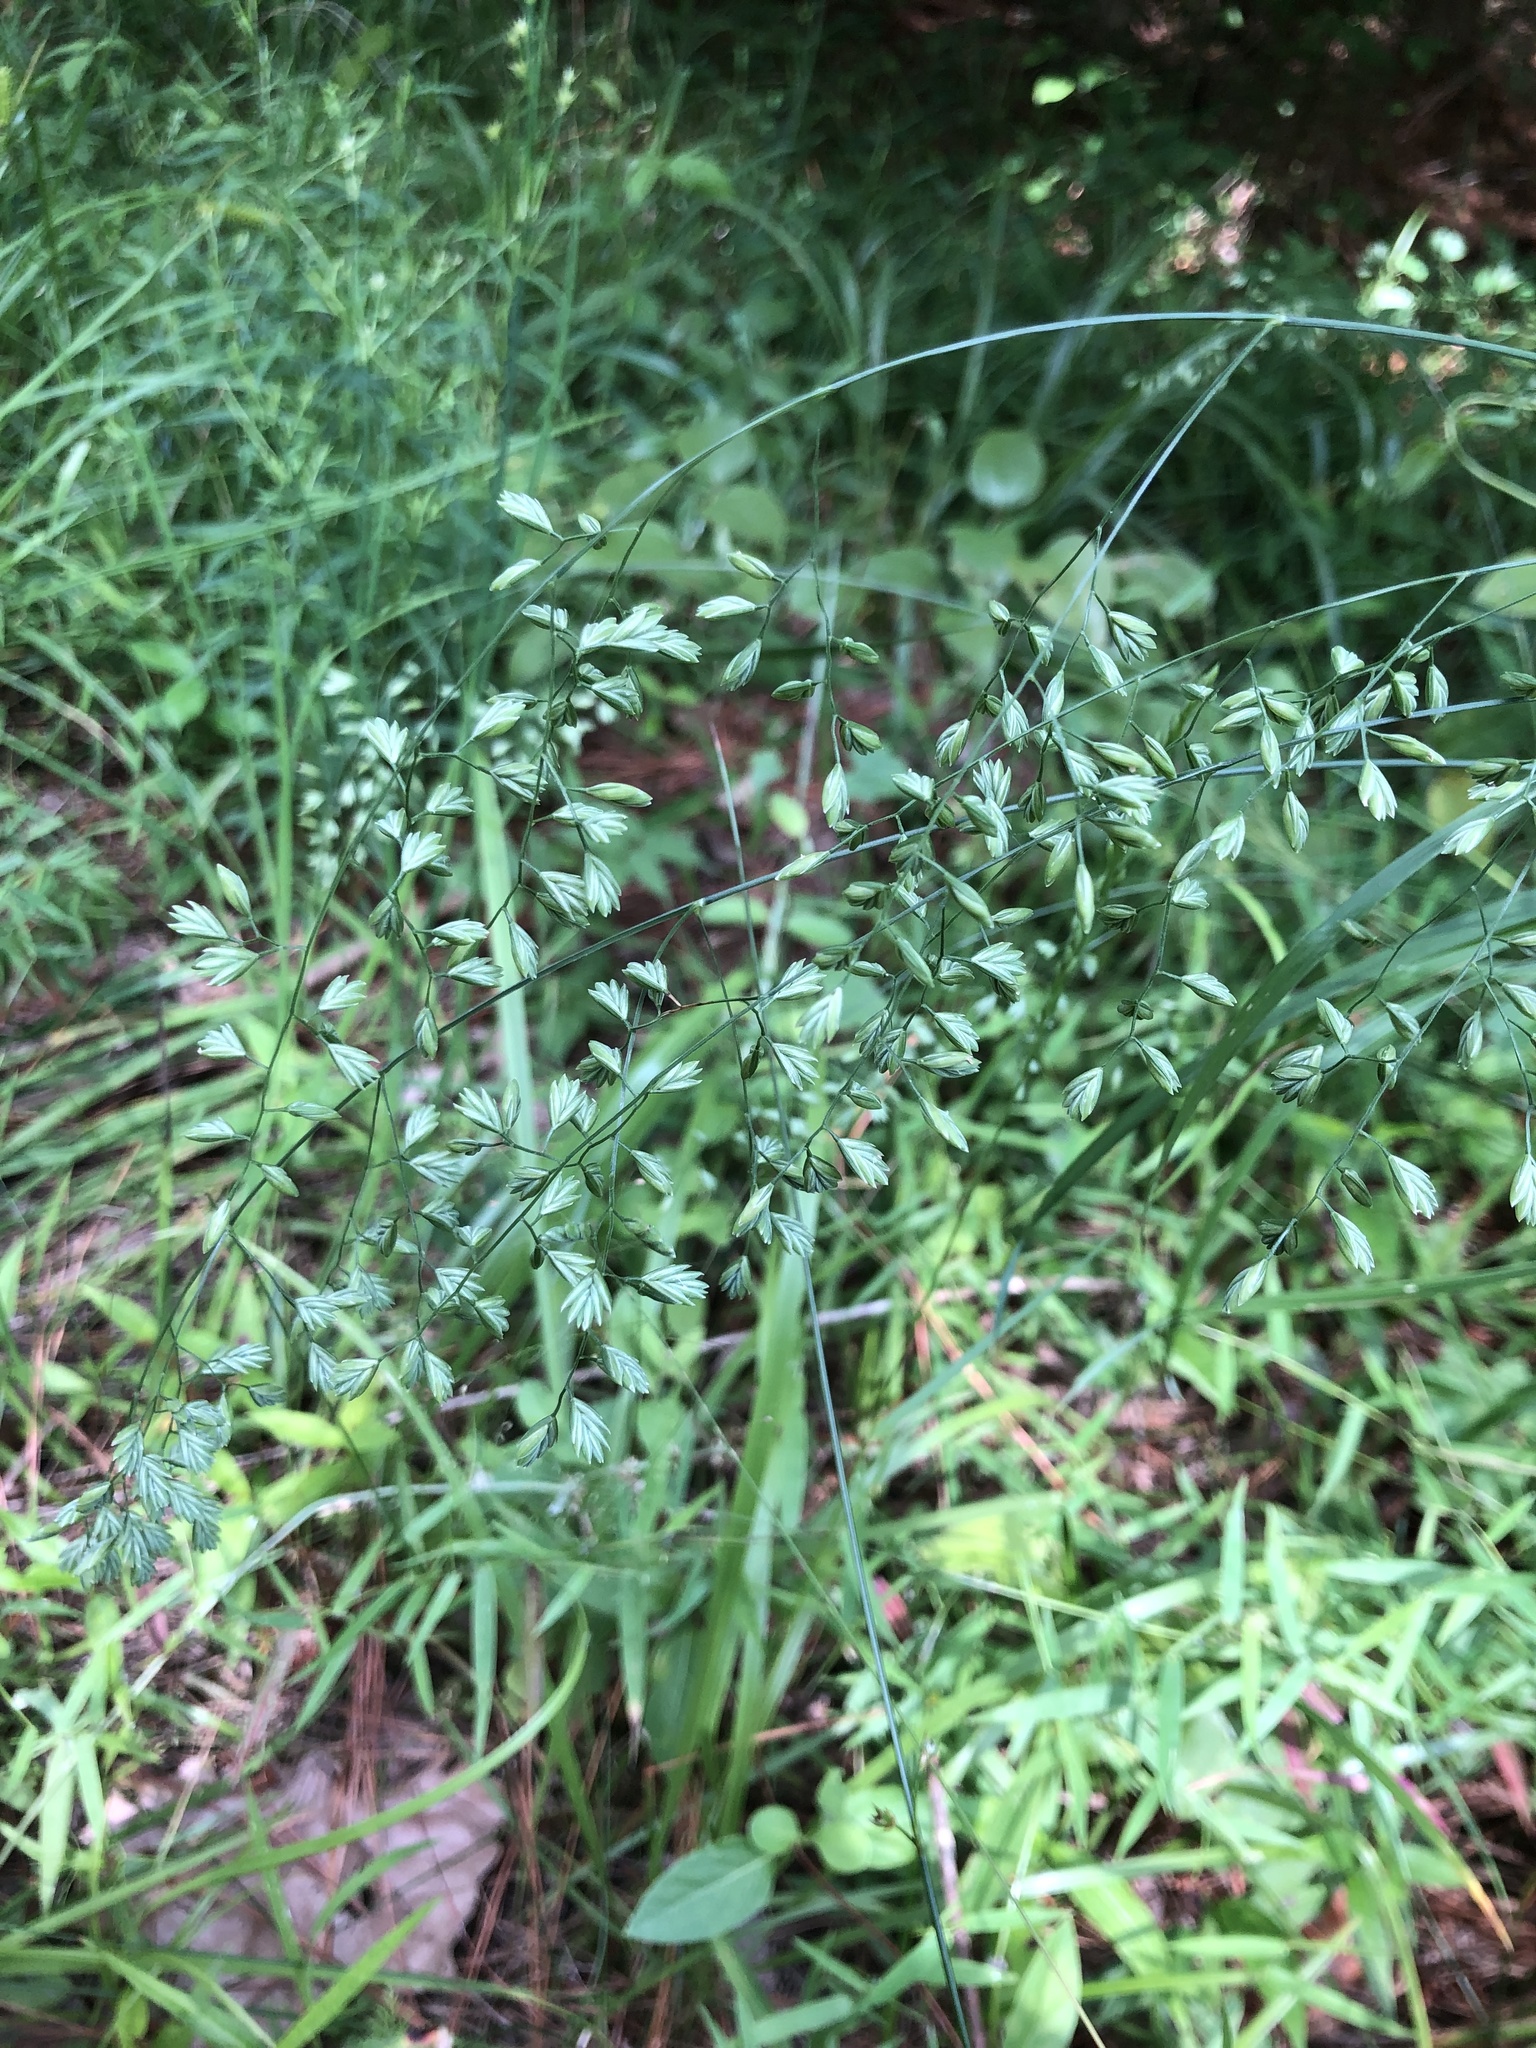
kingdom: Plantae
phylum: Tracheophyta
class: Liliopsida
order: Poales
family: Poaceae
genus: Festuca
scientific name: Festuca paradoxa
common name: Cluster fescue
